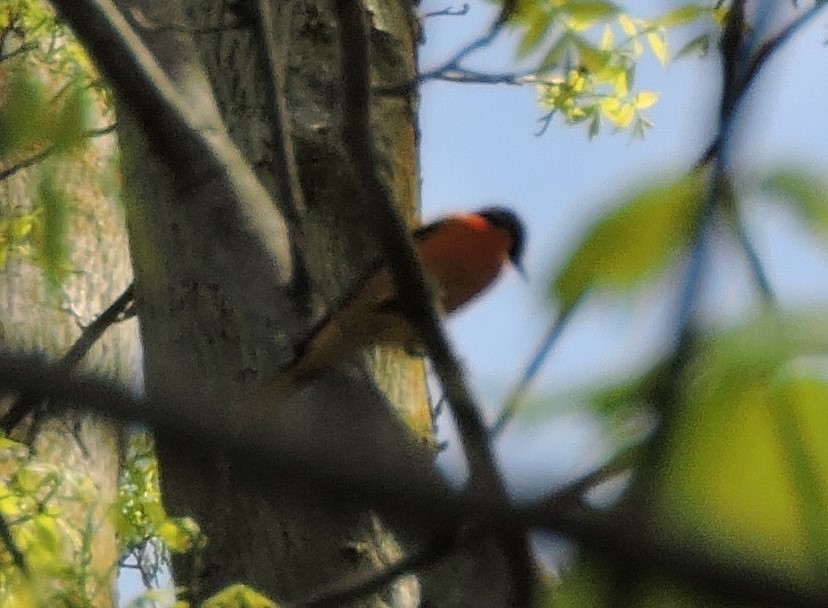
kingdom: Animalia
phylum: Chordata
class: Aves
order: Passeriformes
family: Icteridae
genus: Icterus
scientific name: Icterus galbula
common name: Baltimore oriole
